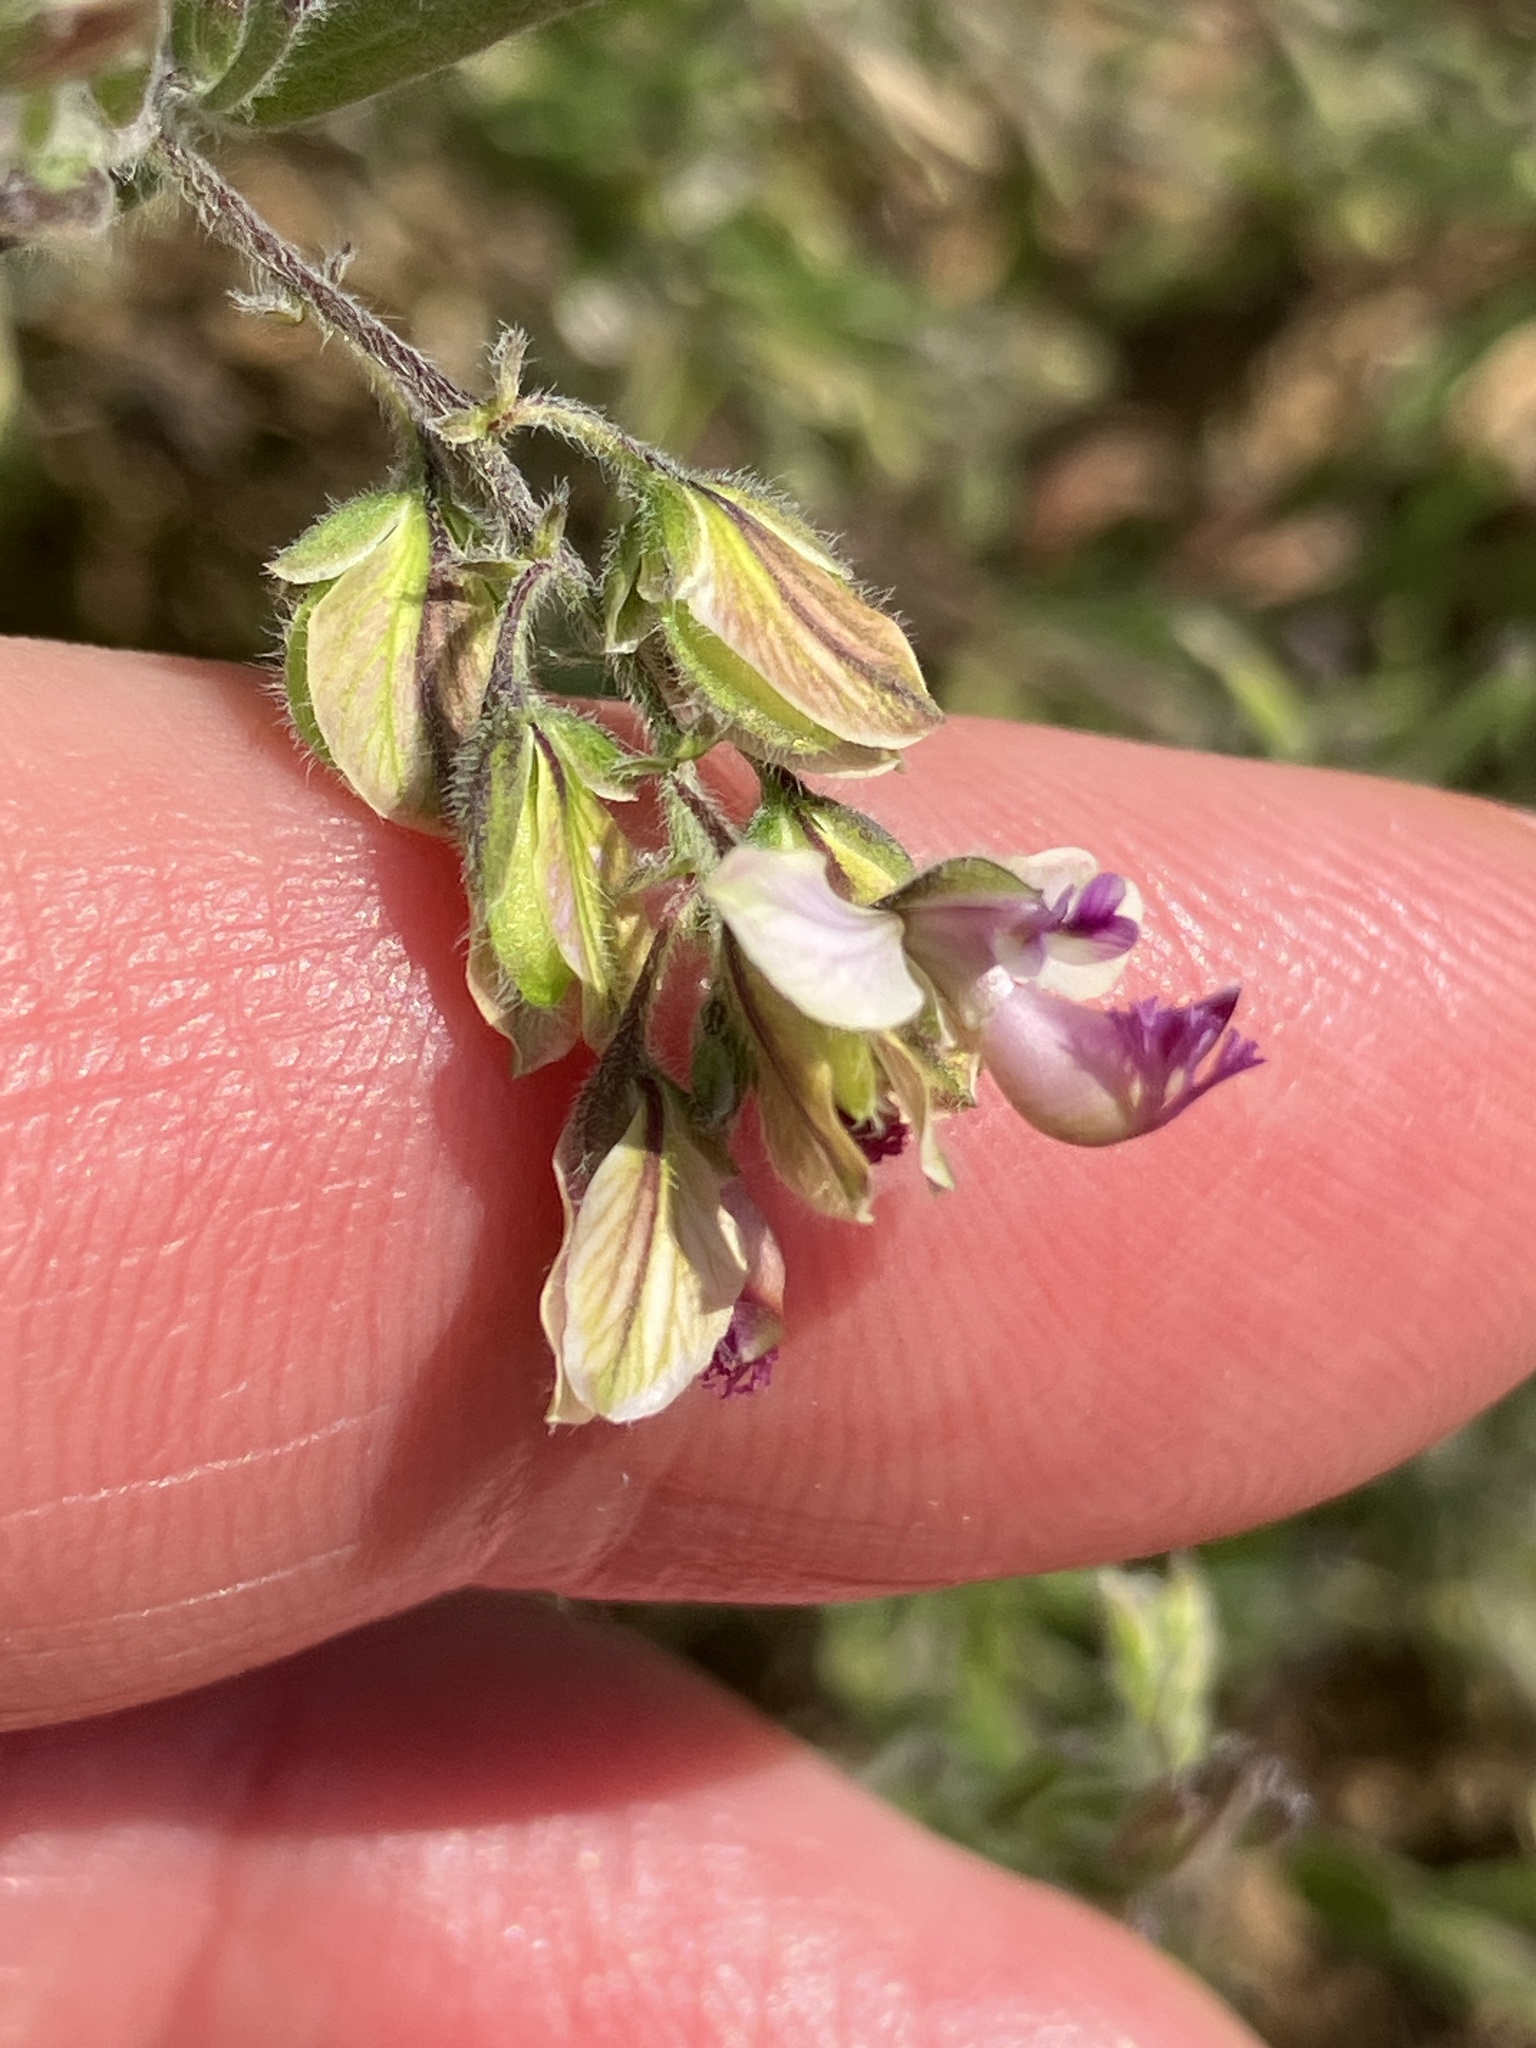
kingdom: Plantae
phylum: Tracheophyta
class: Magnoliopsida
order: Fabales
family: Polygalaceae
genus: Polygala
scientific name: Polygala scabra
